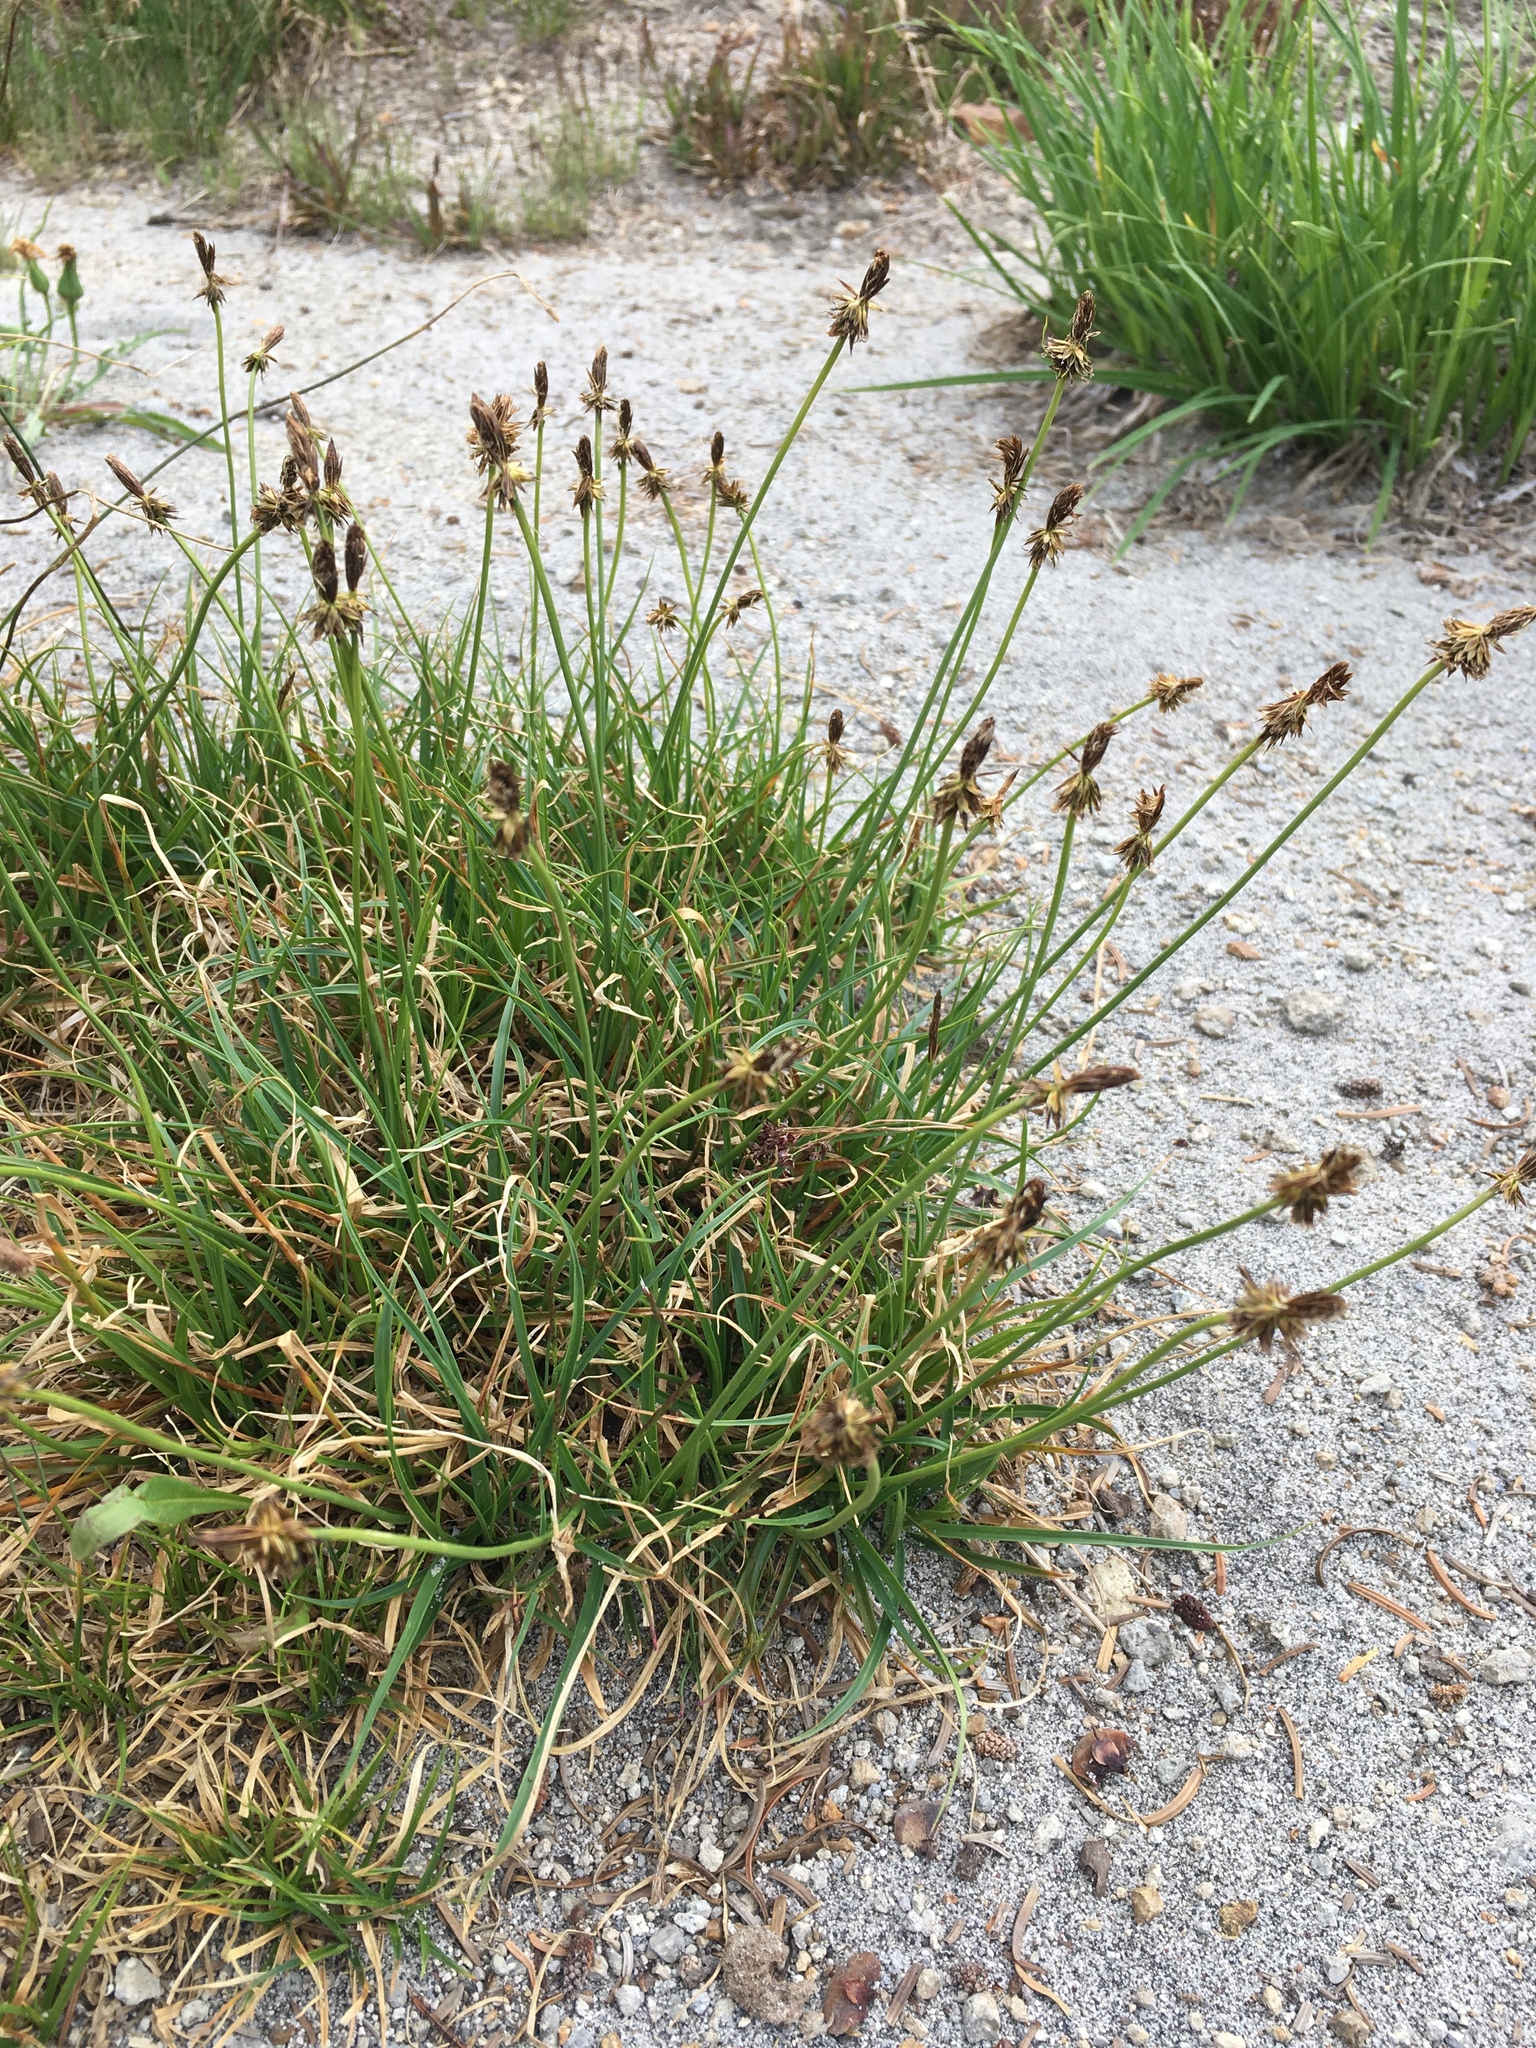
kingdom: Plantae
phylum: Tracheophyta
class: Liliopsida
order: Poales
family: Cyperaceae
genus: Carex
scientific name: Carex nigricans
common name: Black alpine sedge
